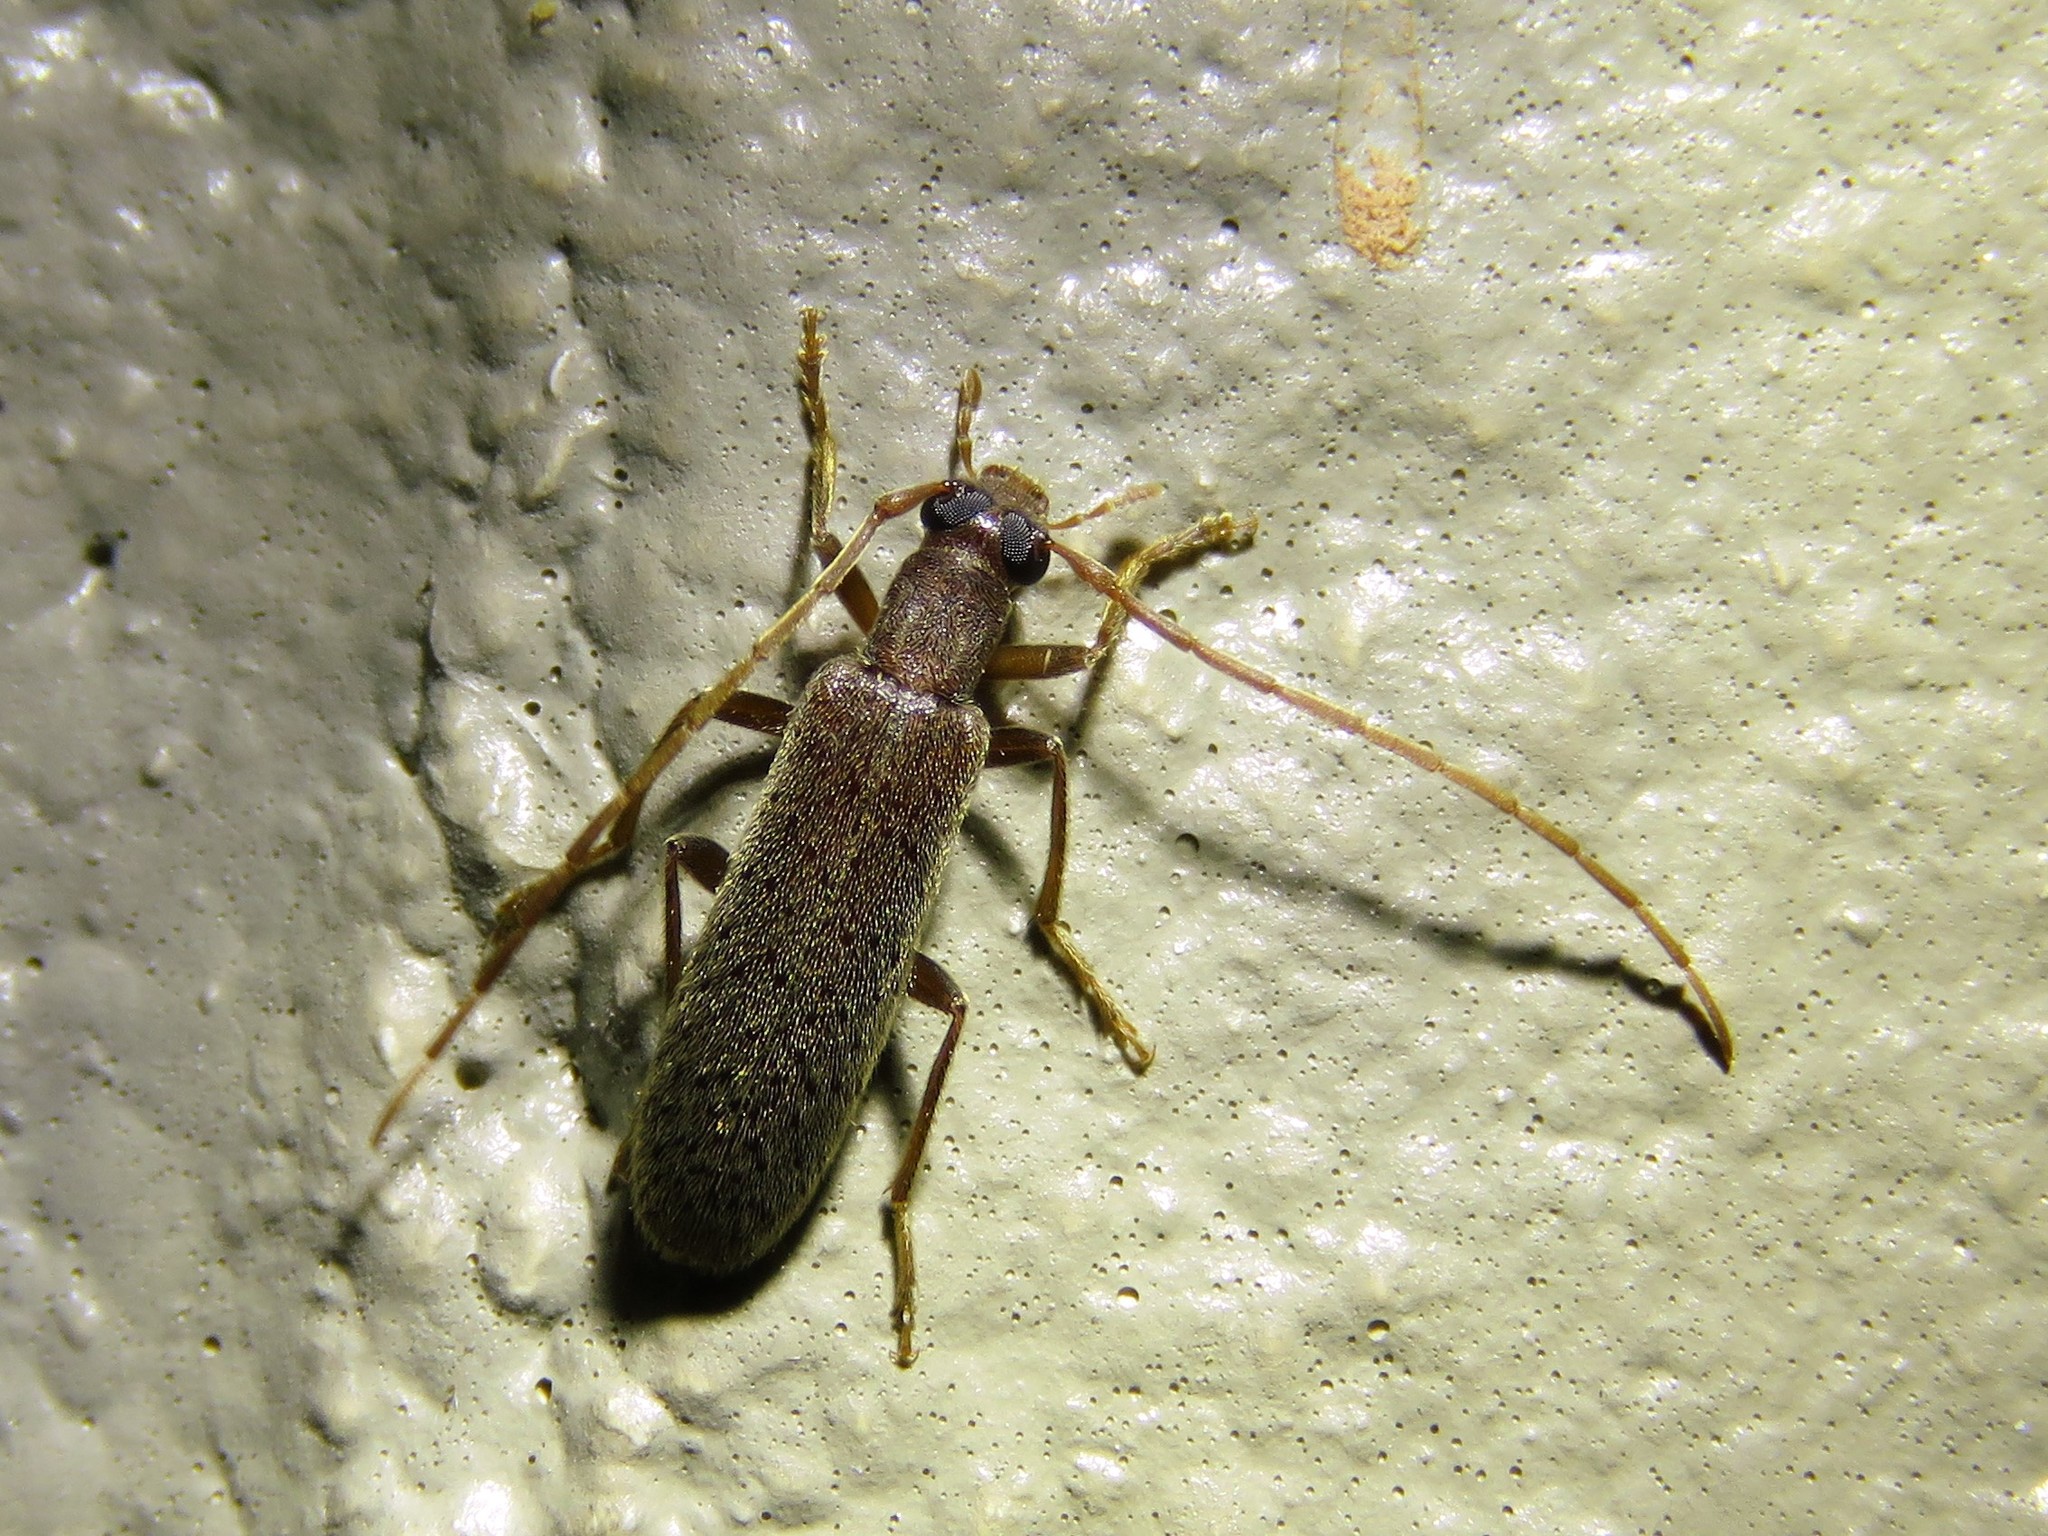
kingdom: Animalia
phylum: Arthropoda
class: Insecta
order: Coleoptera
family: Oedemeridae
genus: Sparedrus
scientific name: Sparedrus aspersus
